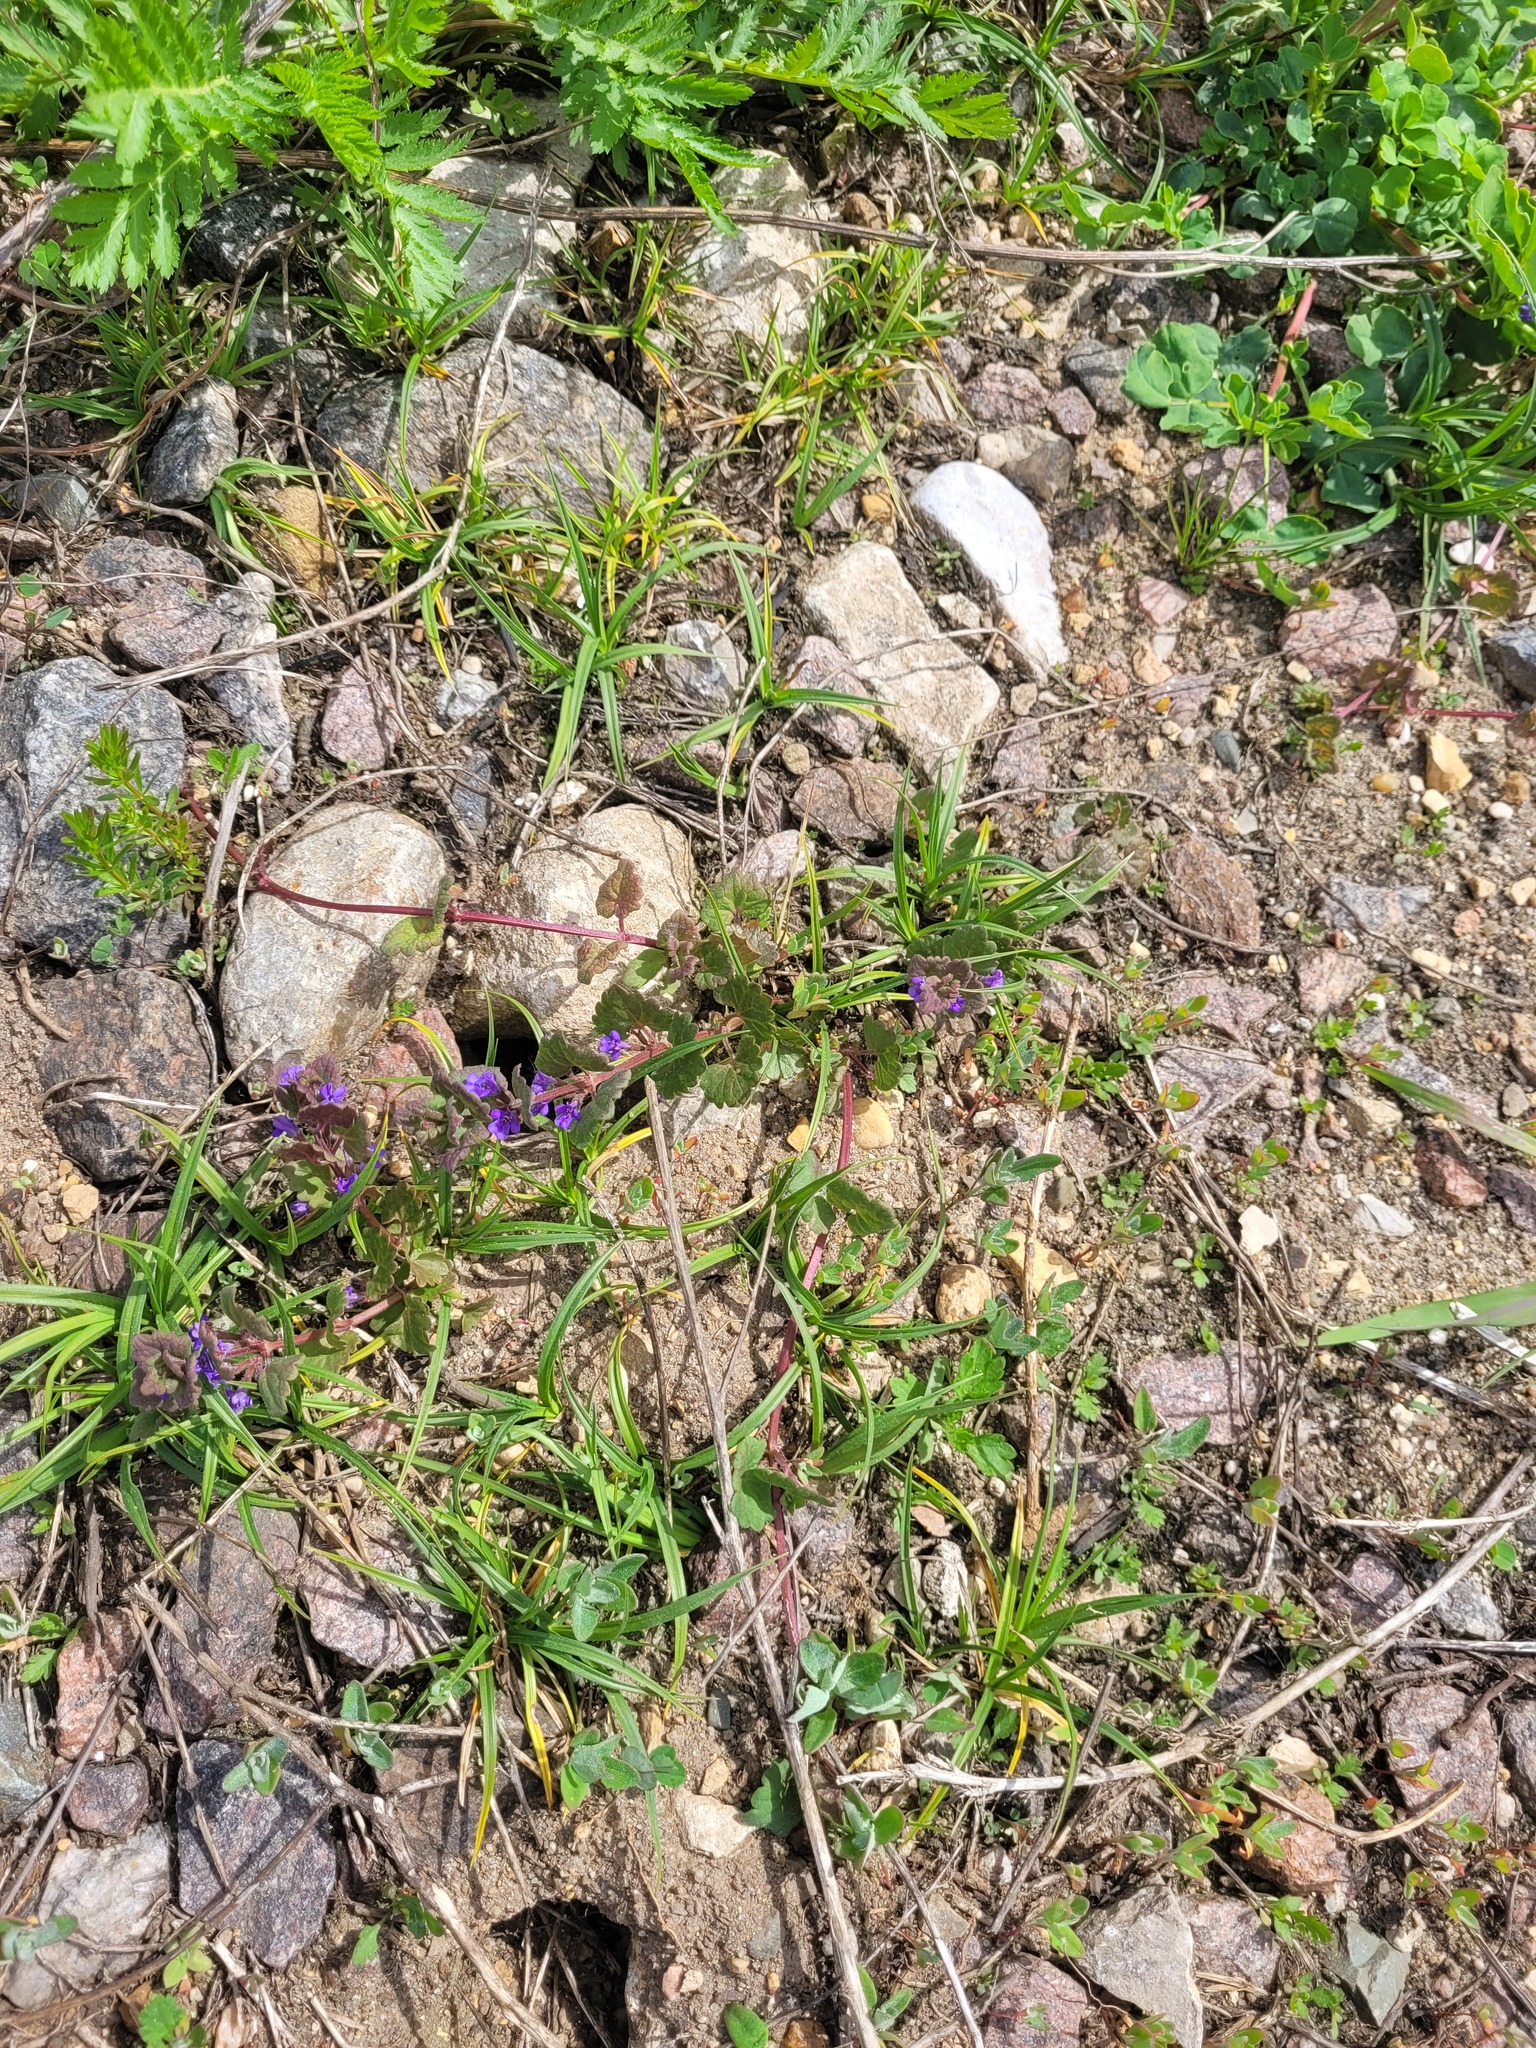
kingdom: Plantae
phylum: Tracheophyta
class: Magnoliopsida
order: Lamiales
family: Lamiaceae
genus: Glechoma
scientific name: Glechoma hederacea
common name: Ground ivy
